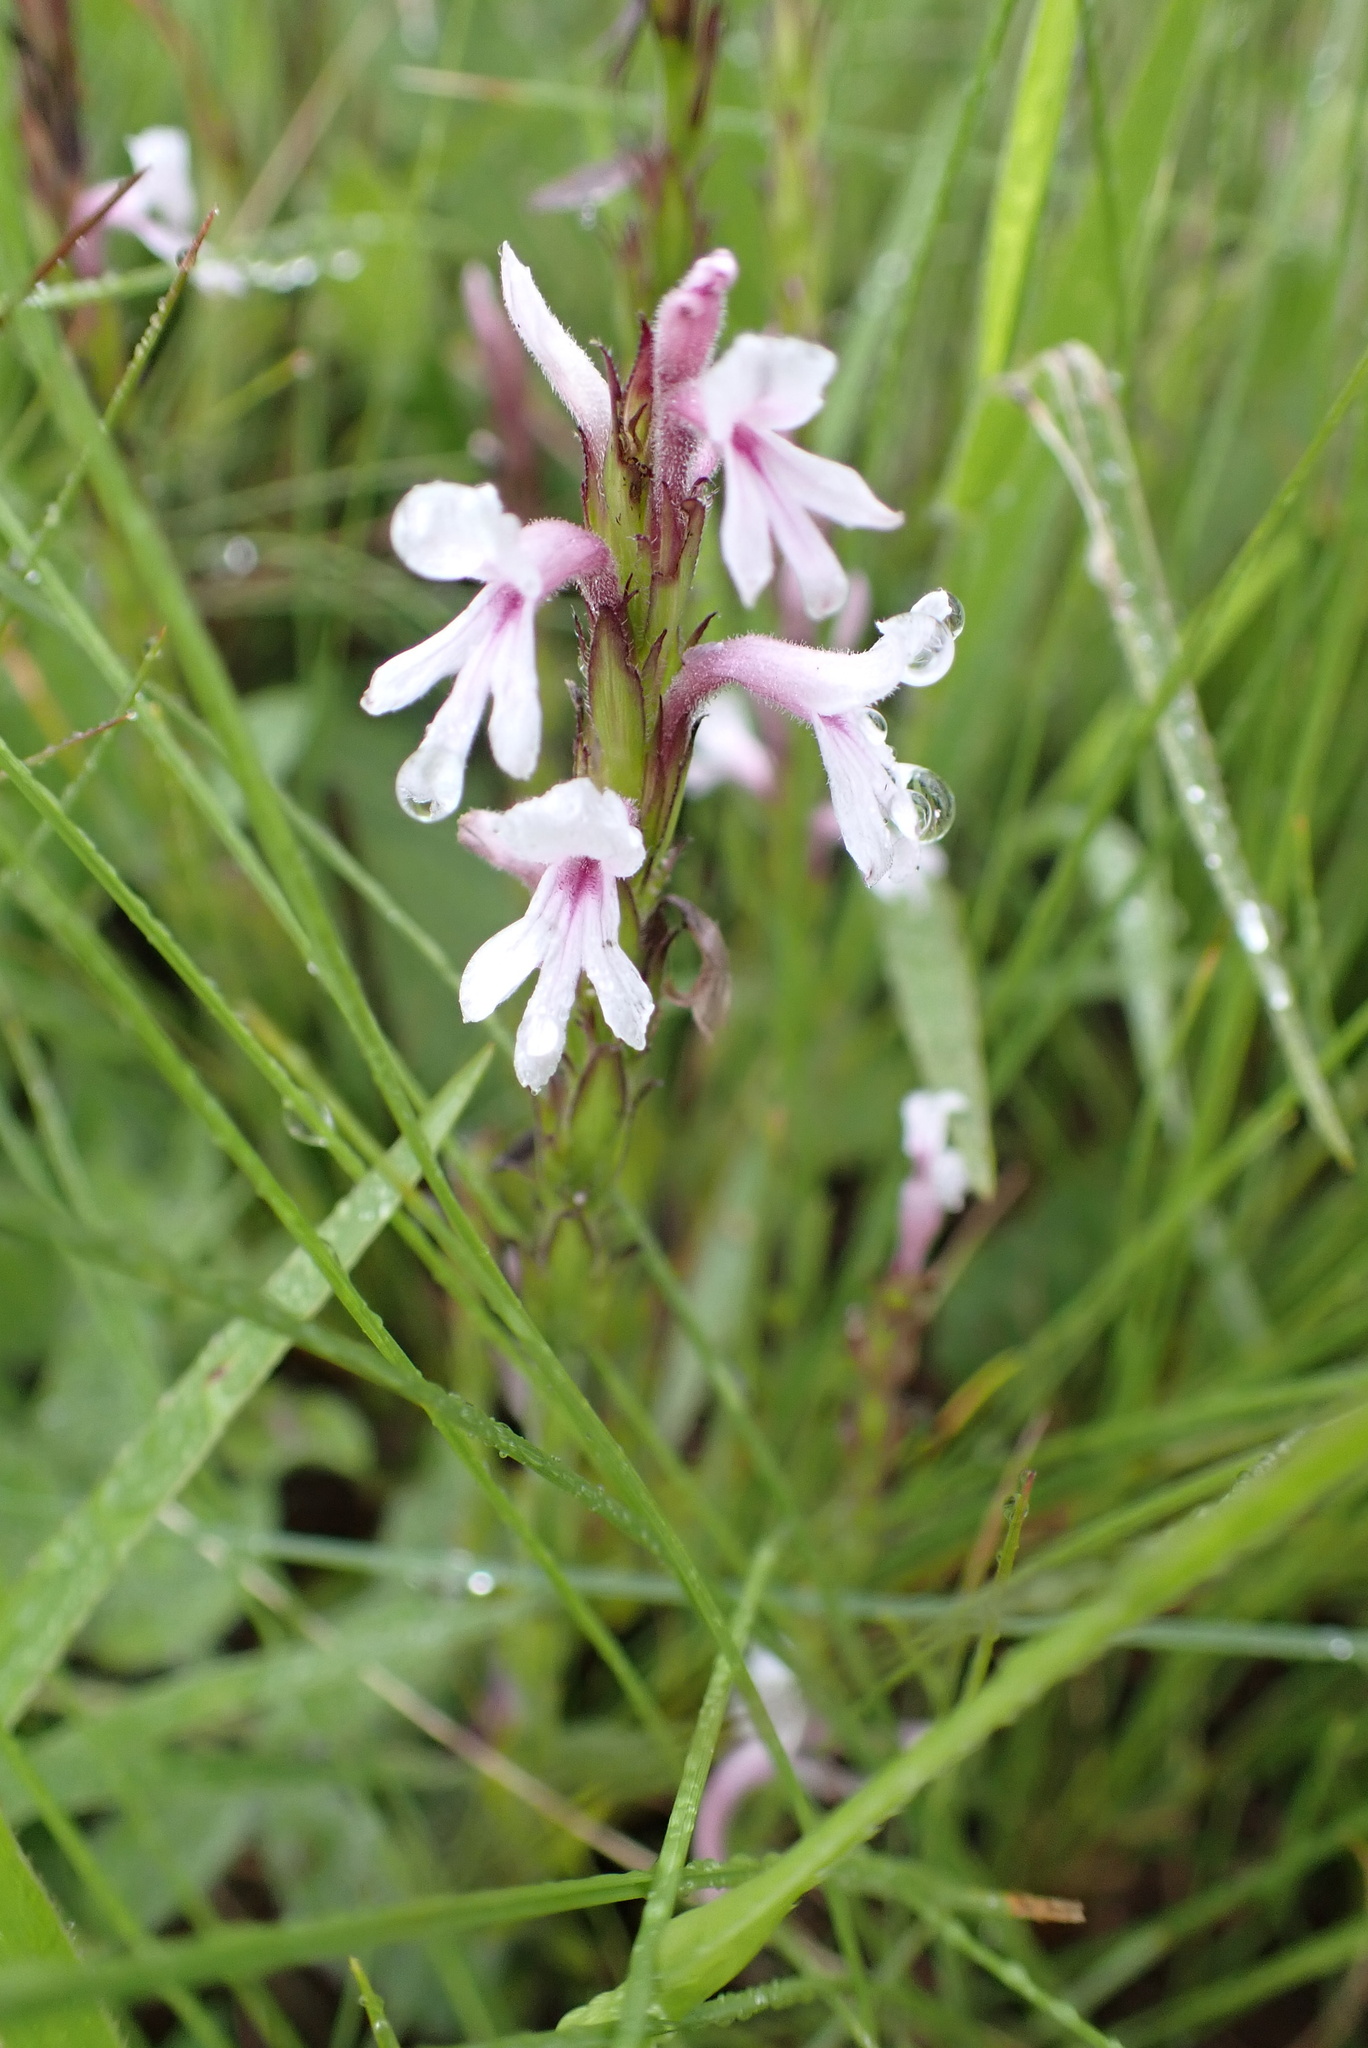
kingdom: Plantae
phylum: Tracheophyta
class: Magnoliopsida
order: Lamiales
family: Orobanchaceae
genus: Striga
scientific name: Striga bilabiata
